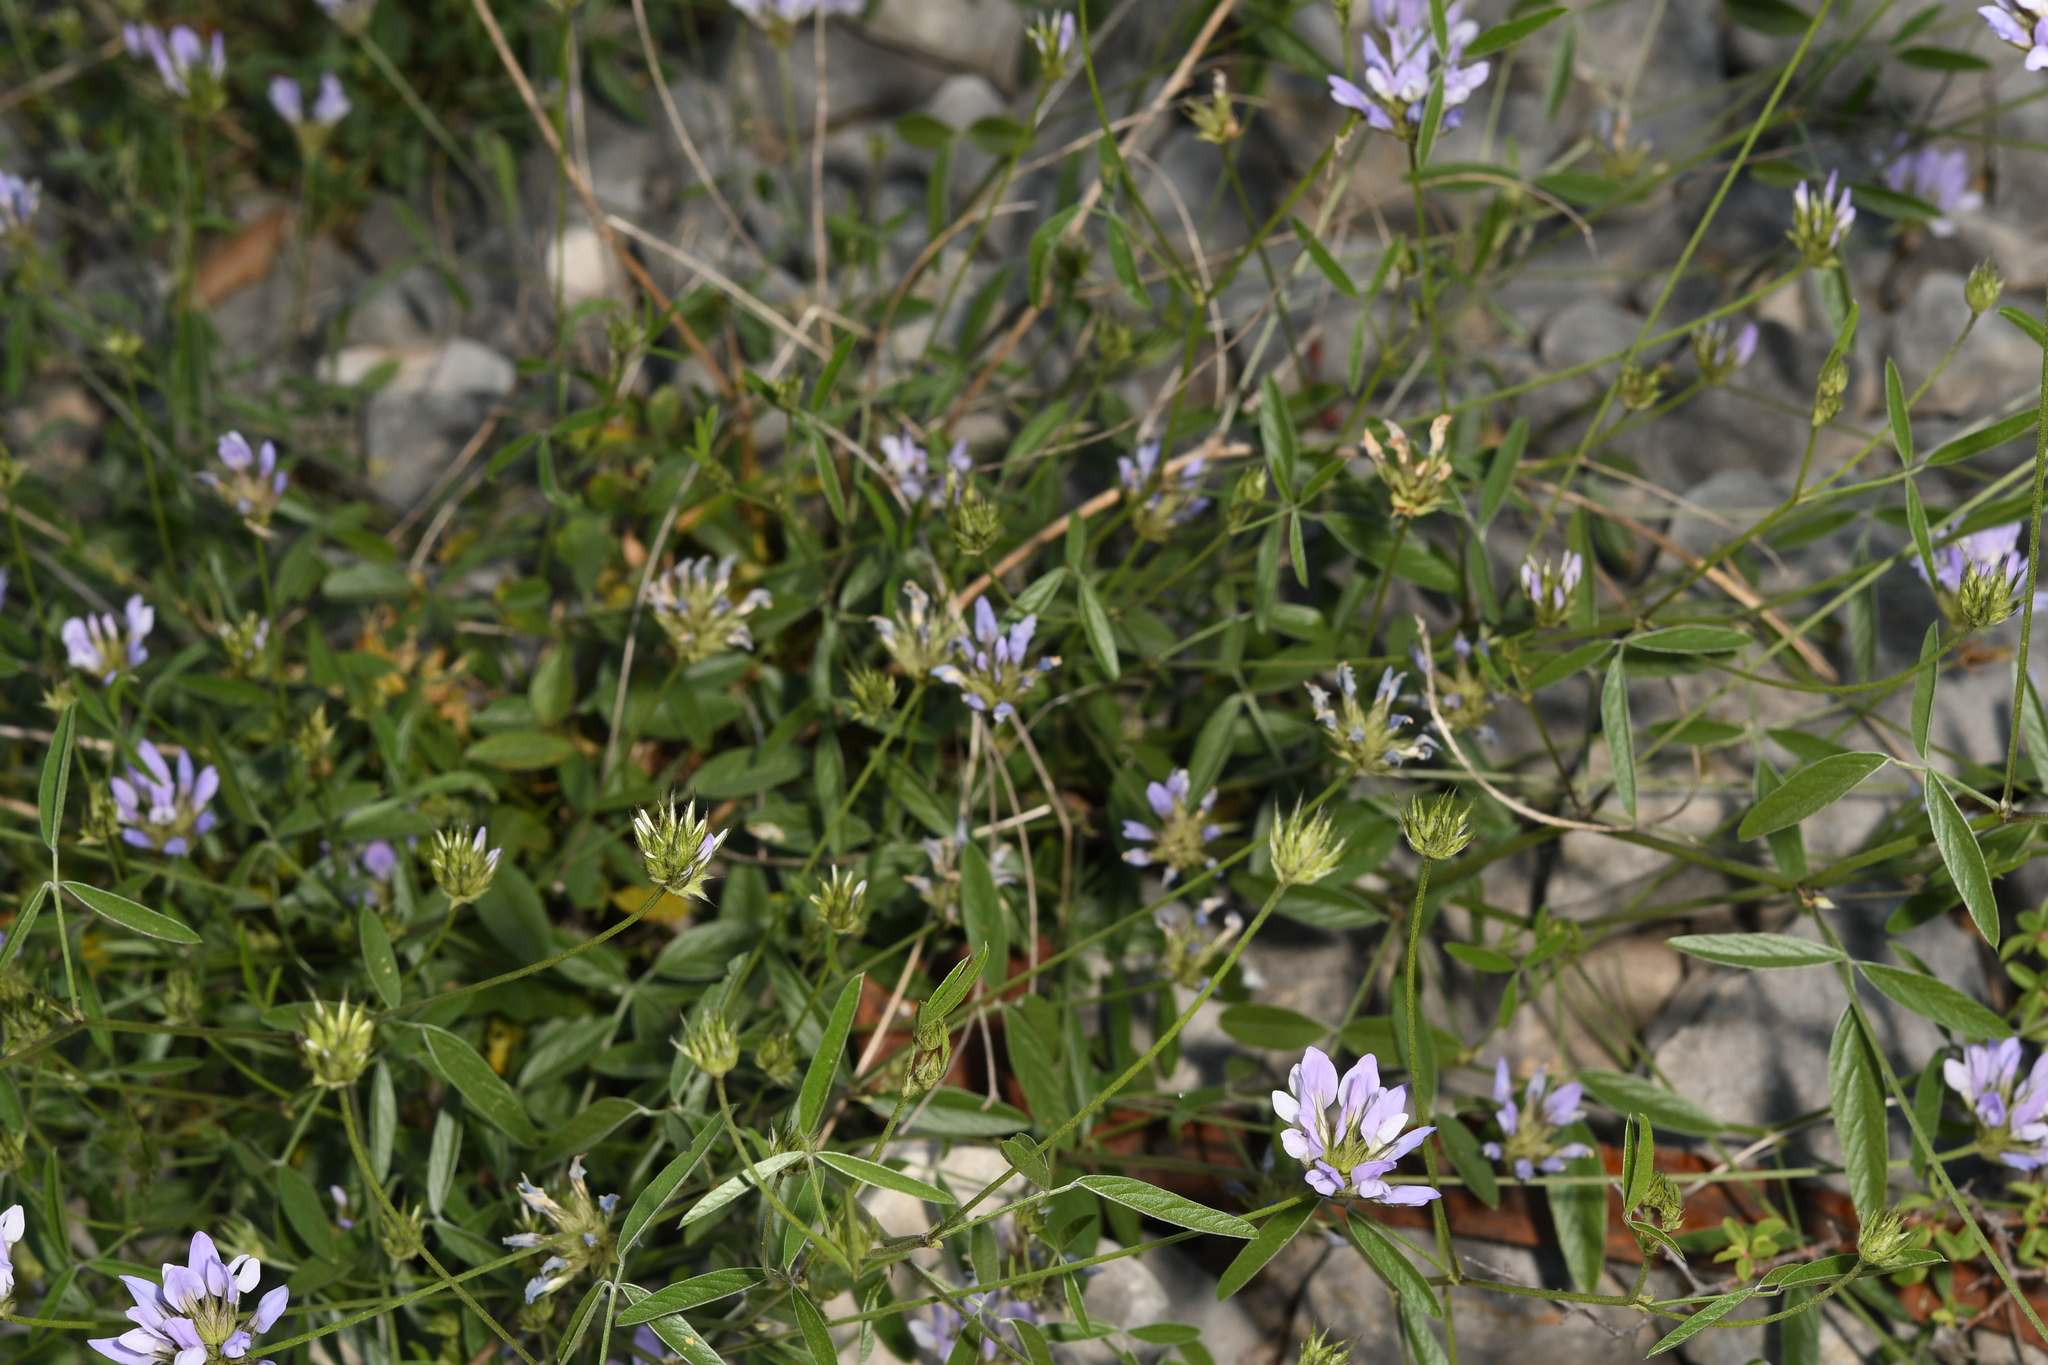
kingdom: Plantae
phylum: Tracheophyta
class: Magnoliopsida
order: Fabales
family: Fabaceae
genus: Bituminaria
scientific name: Bituminaria bituminosa
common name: Arabian pea
